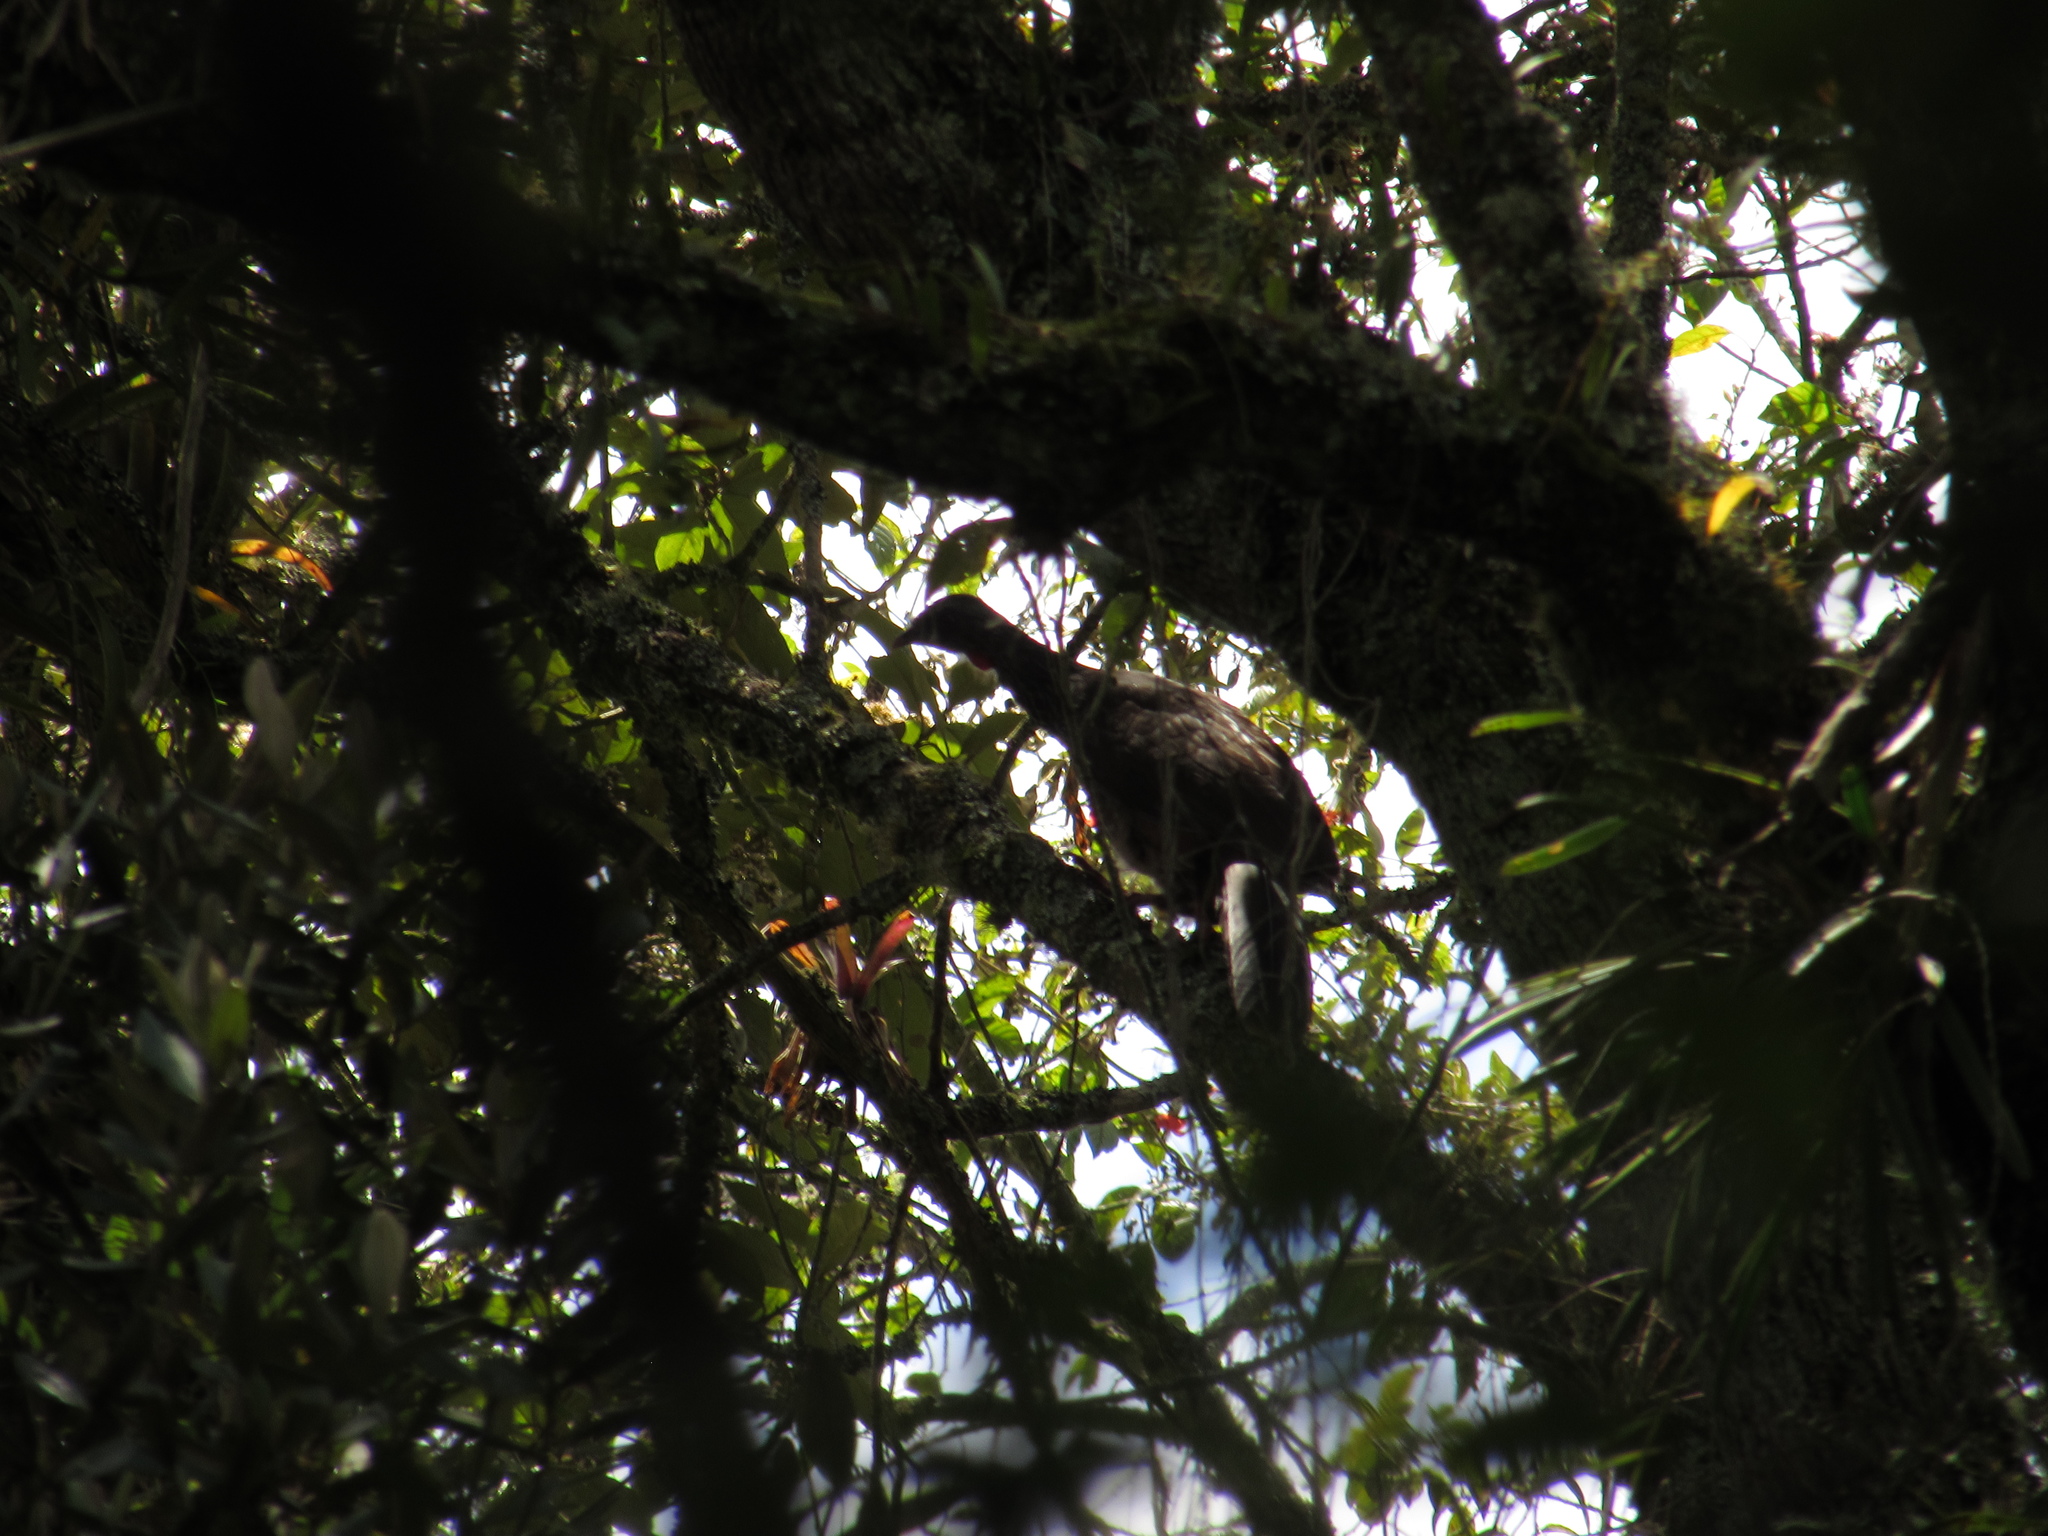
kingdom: Animalia
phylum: Chordata
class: Aves
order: Galliformes
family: Cracidae
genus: Penelope
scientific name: Penelope montagnii
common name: Andean guan
